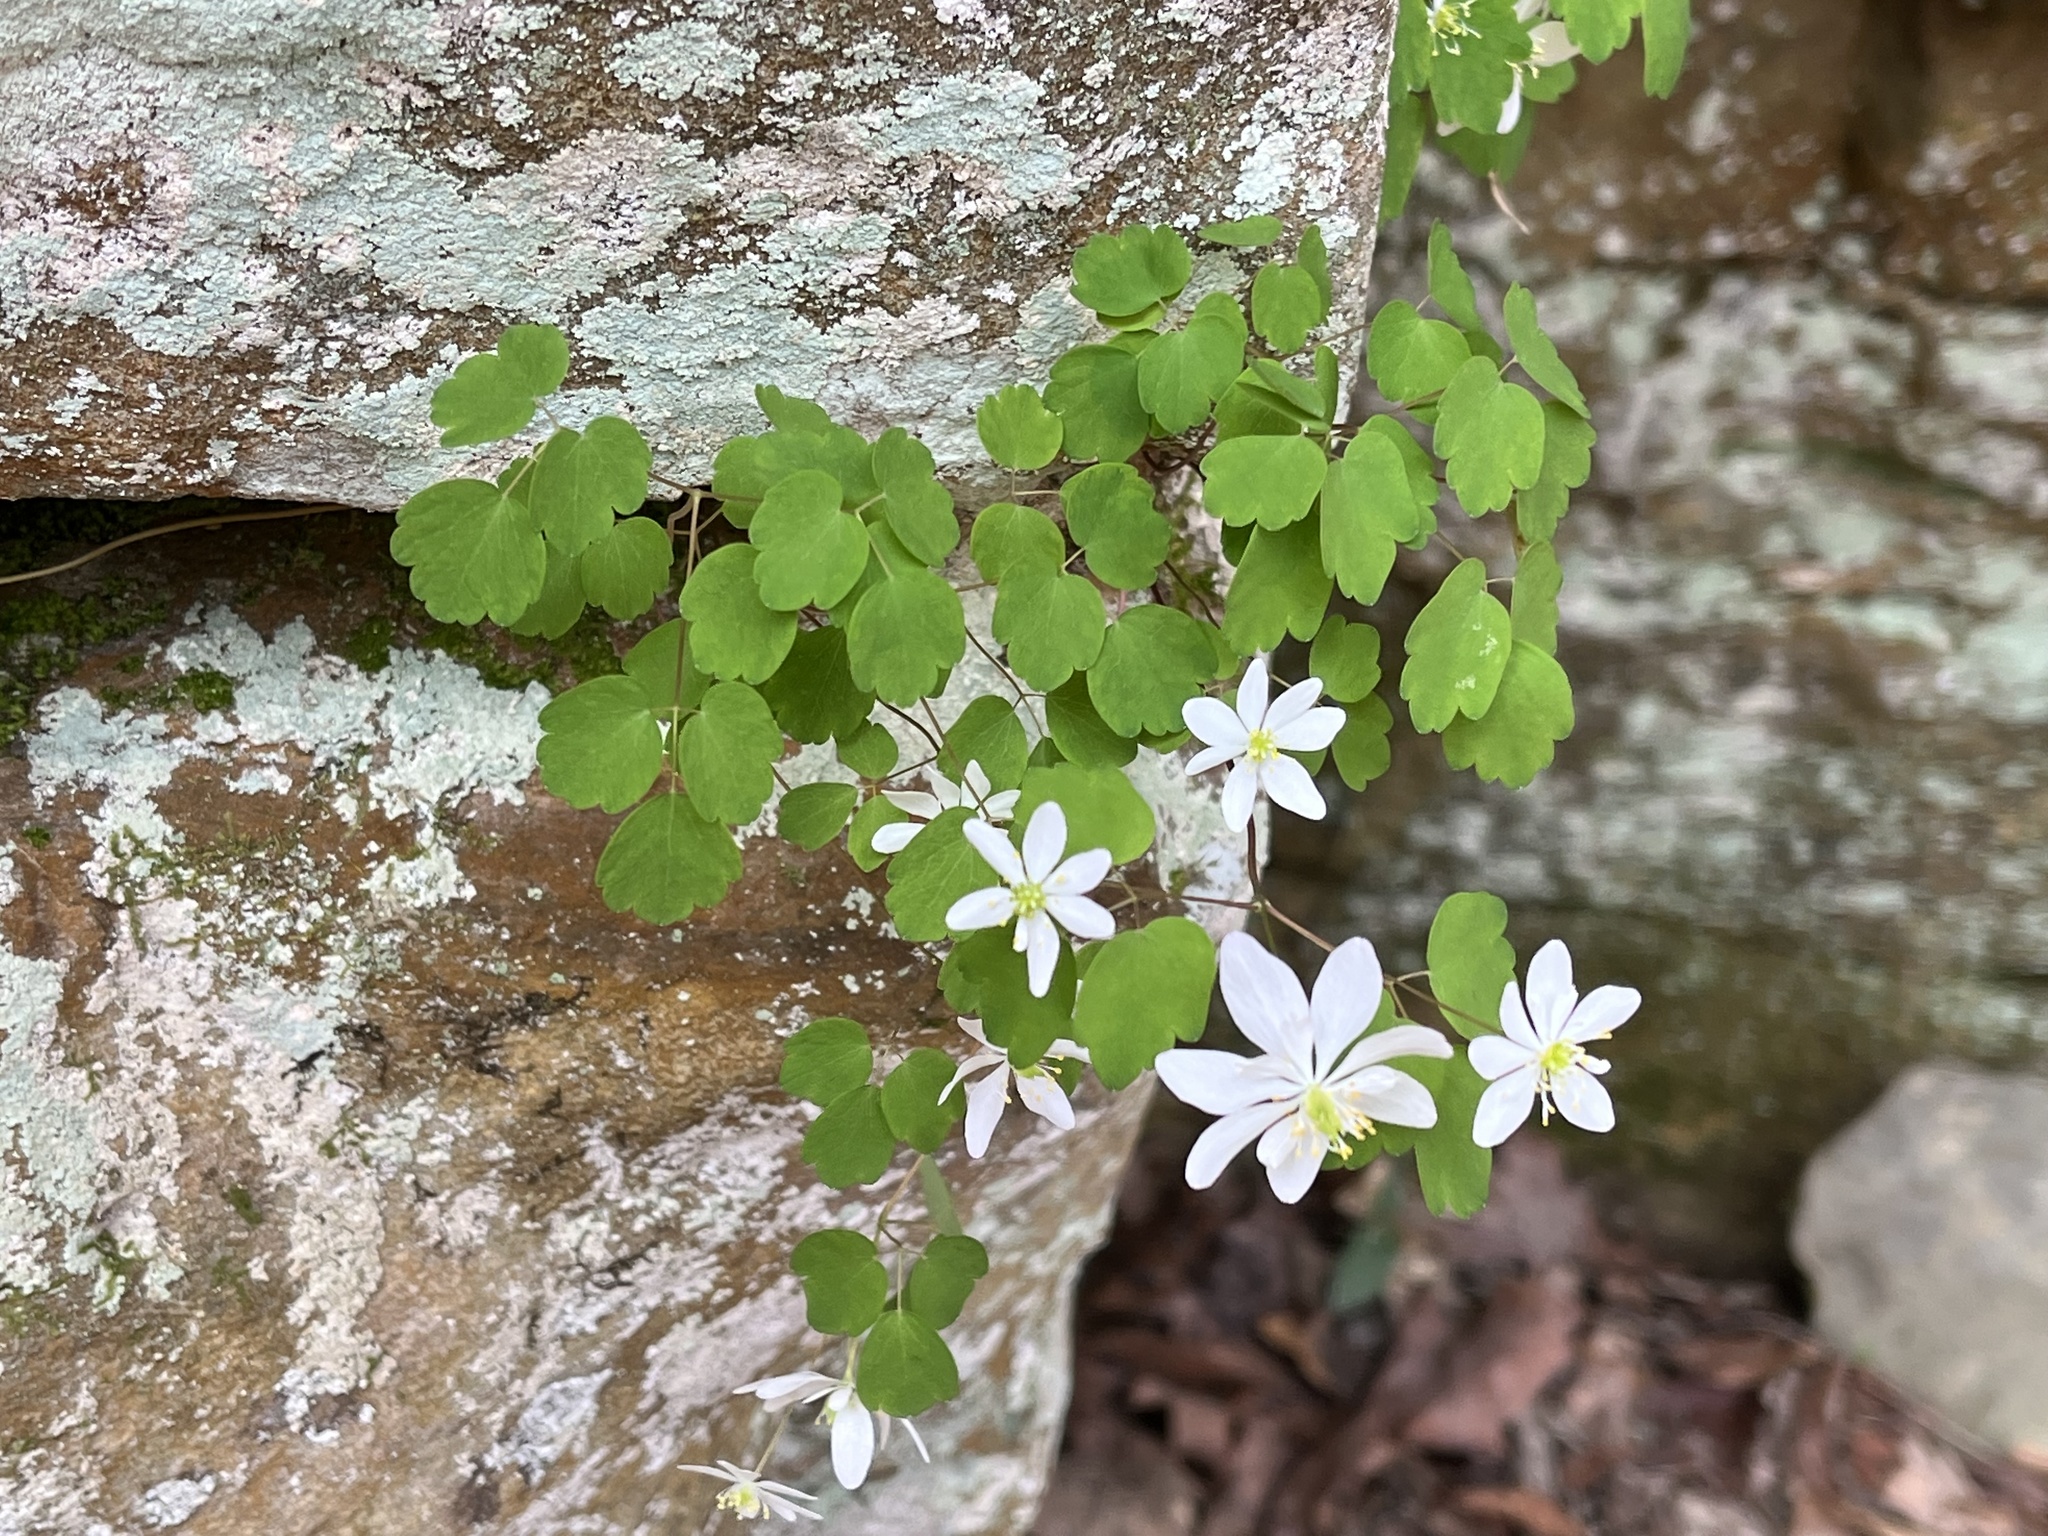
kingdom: Plantae
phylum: Tracheophyta
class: Magnoliopsida
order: Ranunculales
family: Ranunculaceae
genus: Thalictrum
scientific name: Thalictrum thalictroides
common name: Rue-anemone
